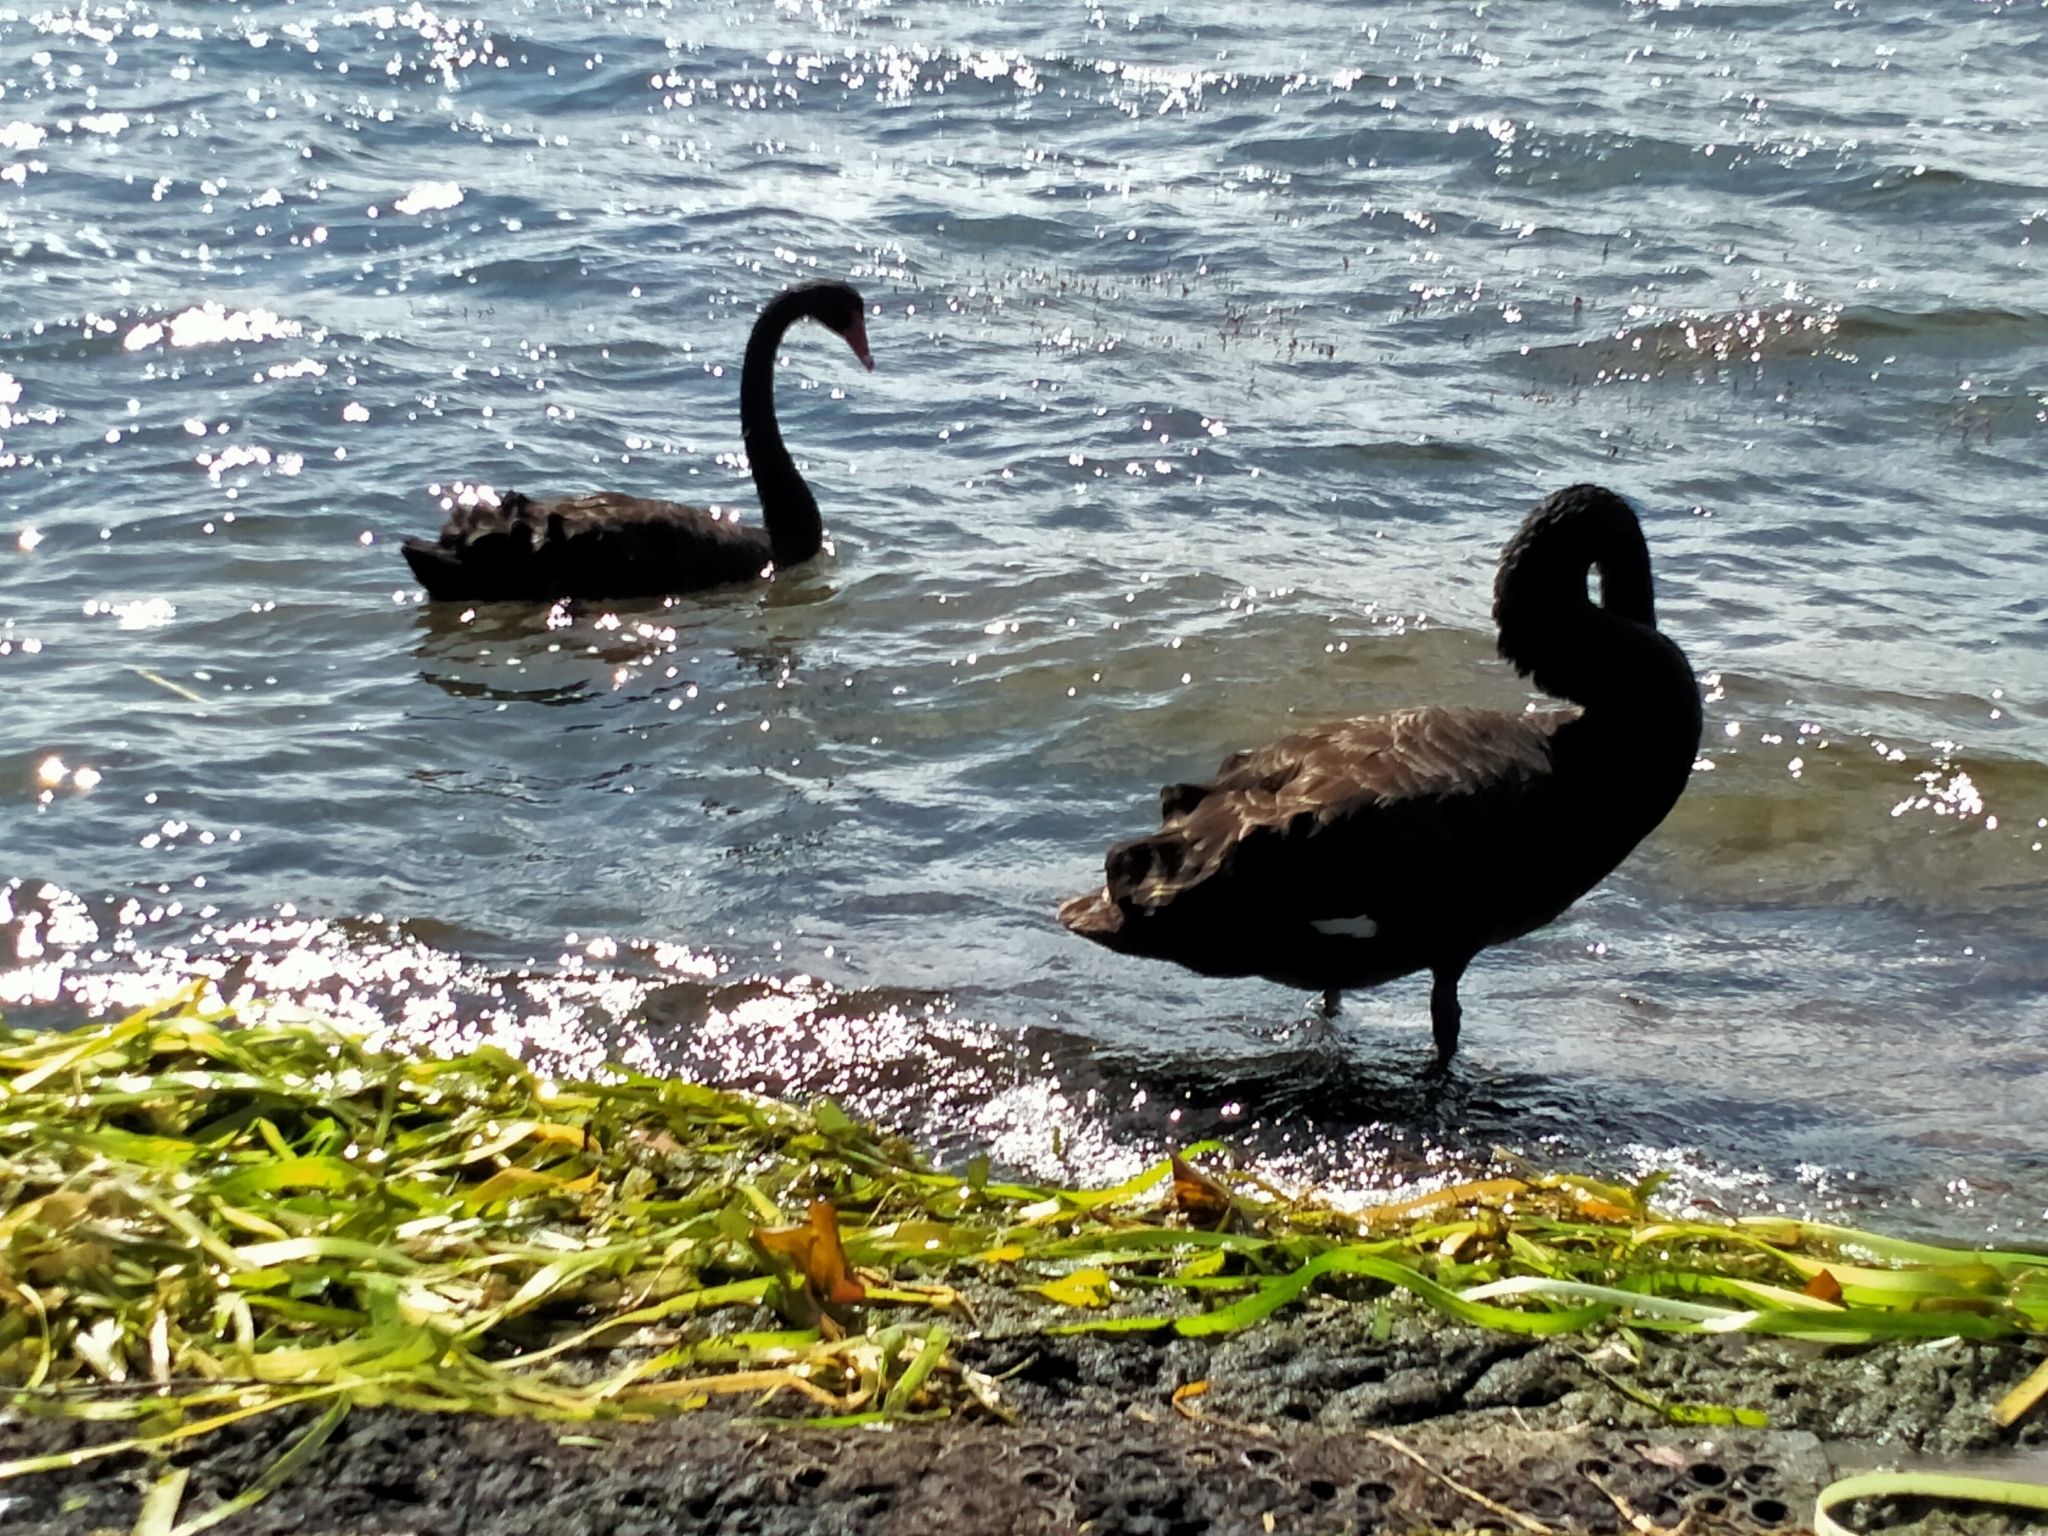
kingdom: Animalia
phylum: Chordata
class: Aves
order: Anseriformes
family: Anatidae
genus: Cygnus
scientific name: Cygnus atratus
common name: Black swan
